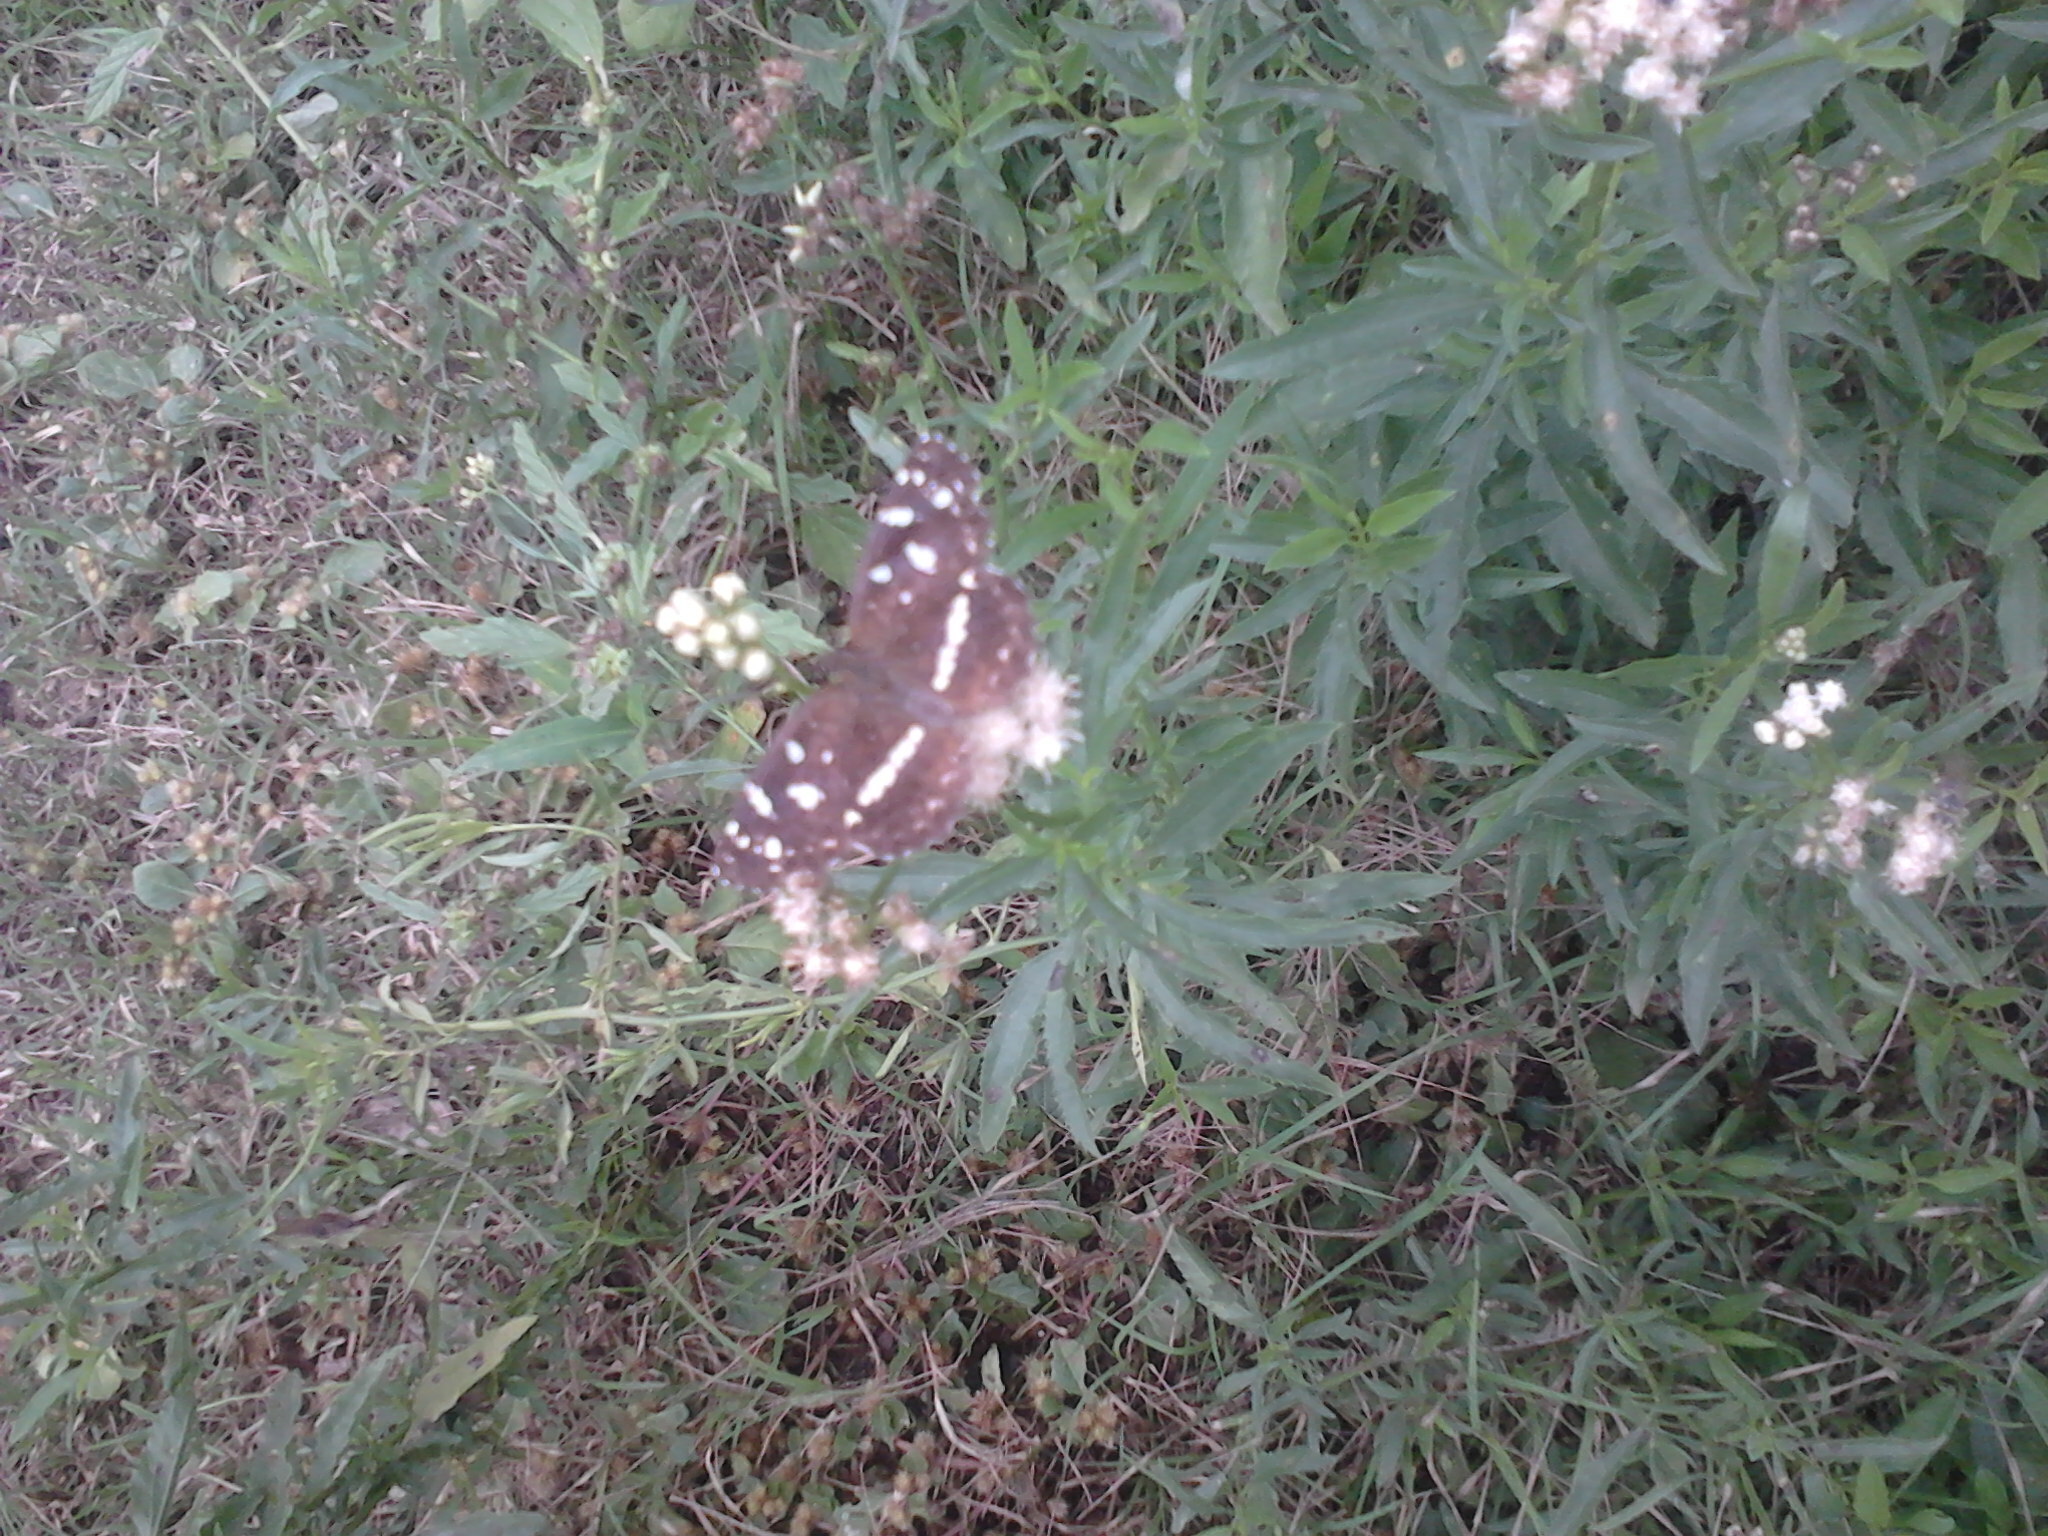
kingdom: Animalia
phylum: Arthropoda
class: Insecta
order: Lepidoptera
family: Nymphalidae
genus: Ortilia
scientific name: Ortilia ithra
